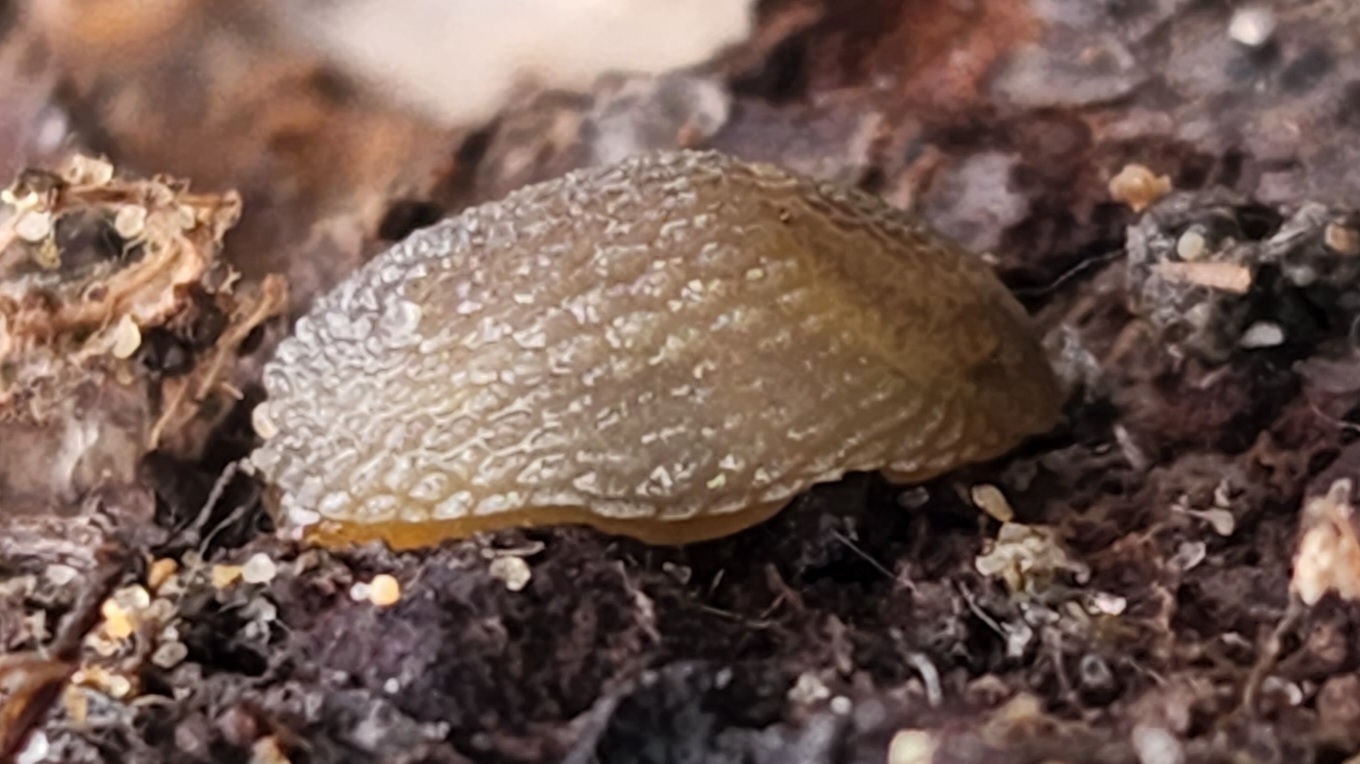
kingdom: Animalia
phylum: Mollusca
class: Gastropoda
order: Stylommatophora
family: Arionidae
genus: Arion
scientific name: Arion intermedius
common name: Hedgehog slug
